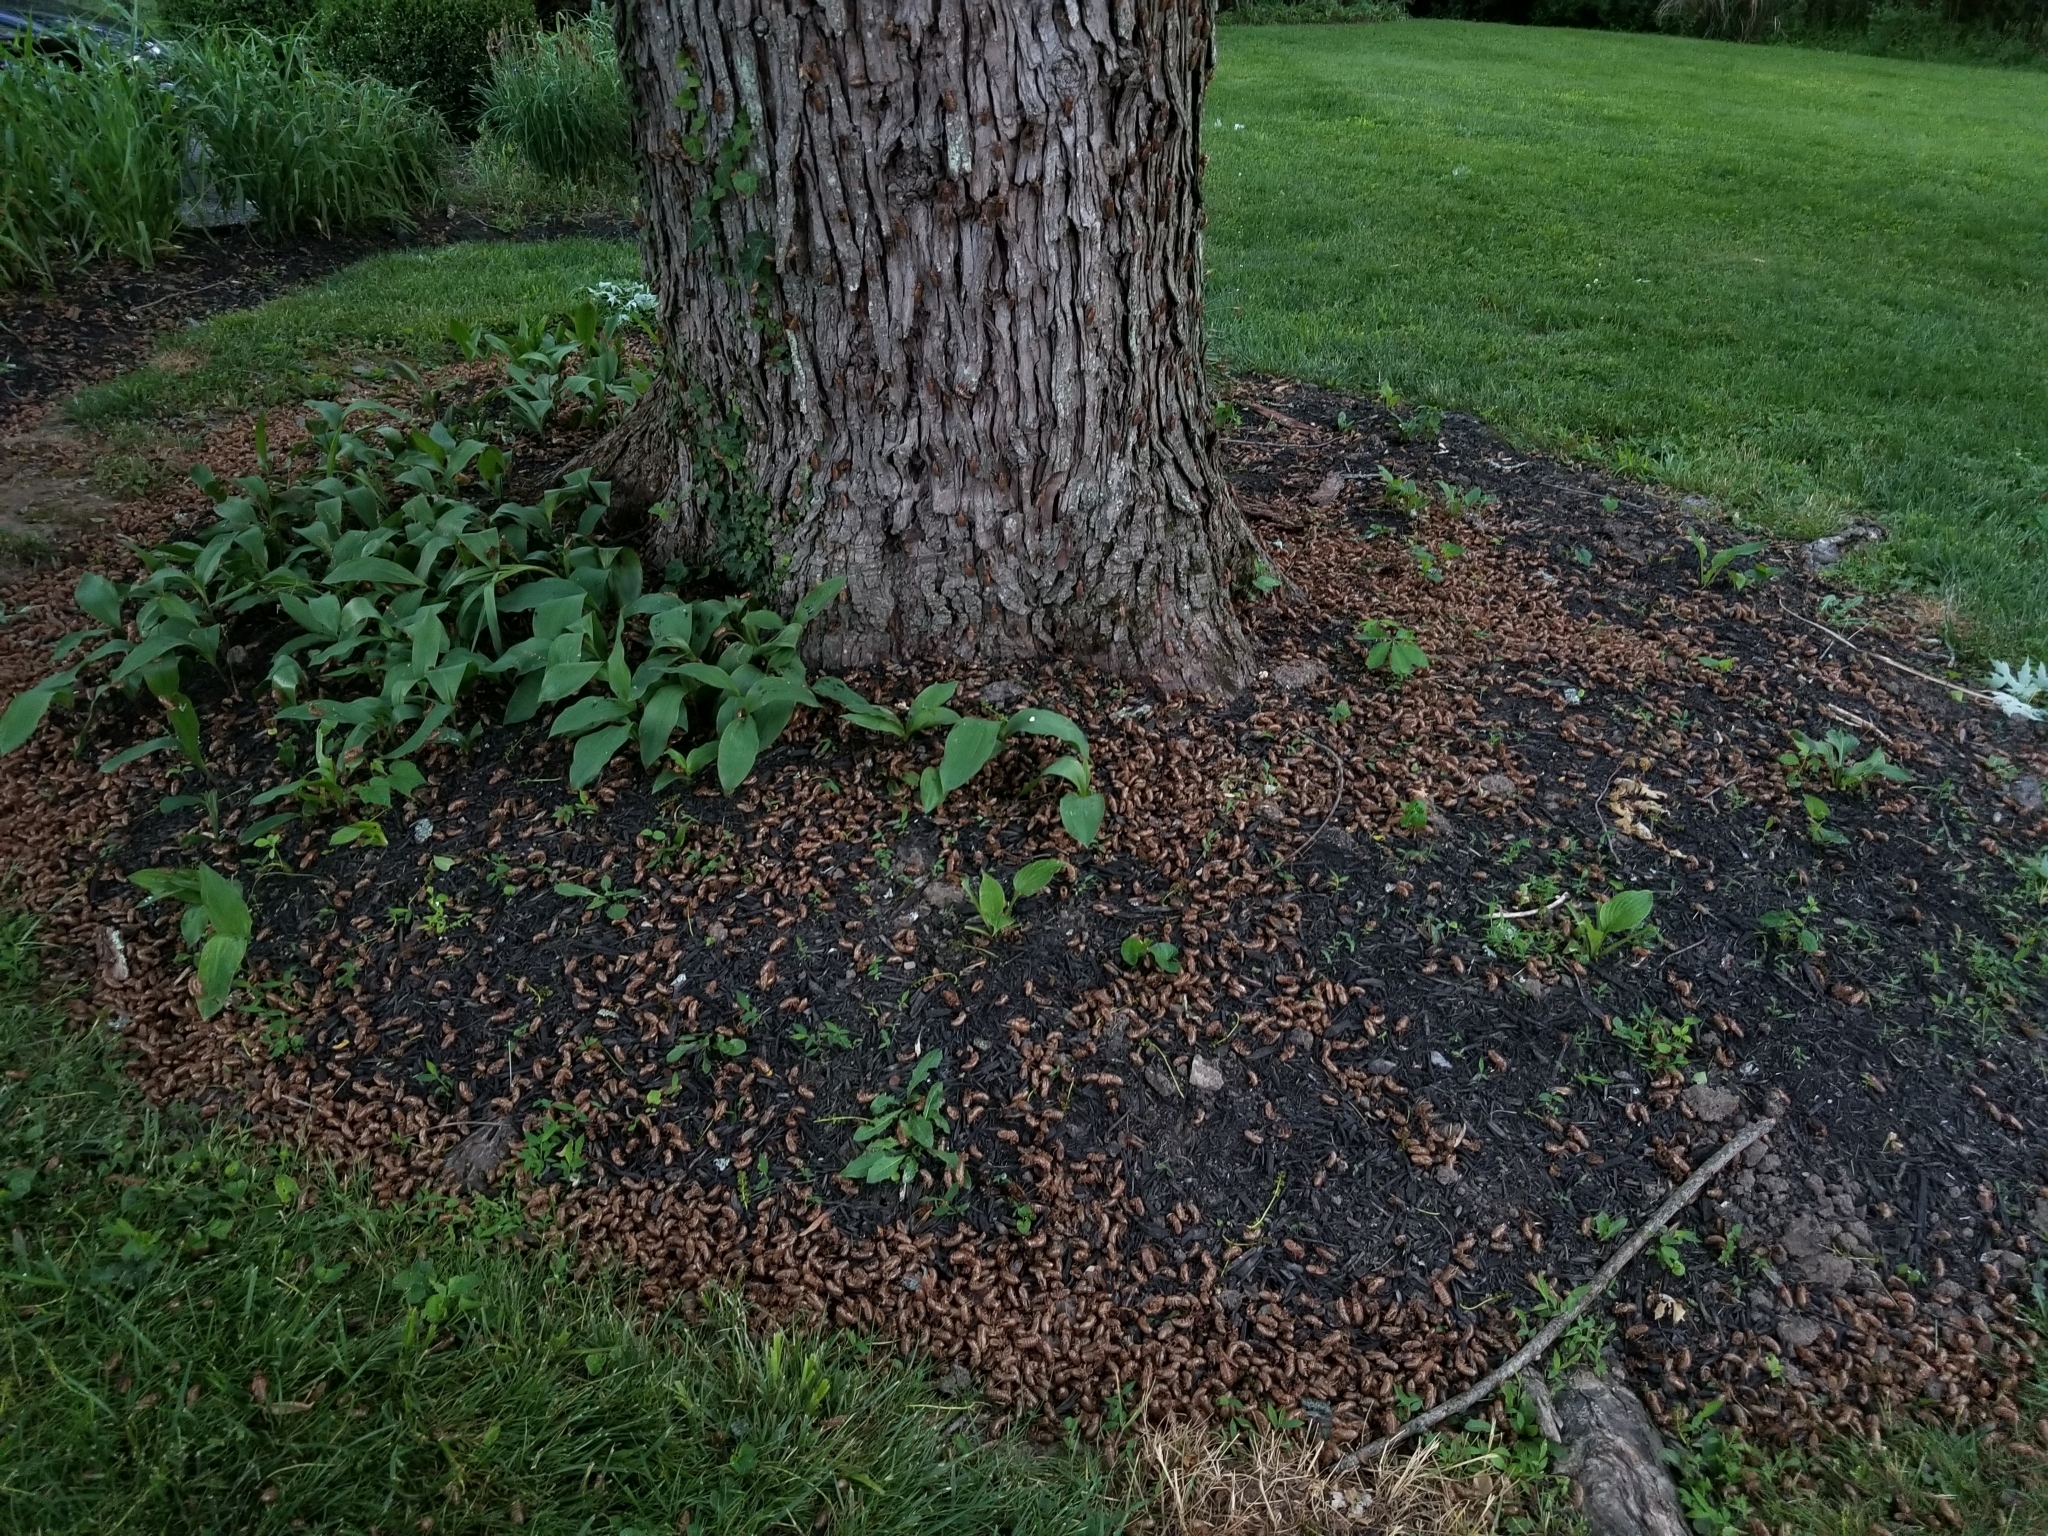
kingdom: Animalia
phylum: Arthropoda
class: Insecta
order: Hemiptera
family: Cicadidae
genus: Magicicada
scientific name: Magicicada septendecim
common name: Periodical cicada
